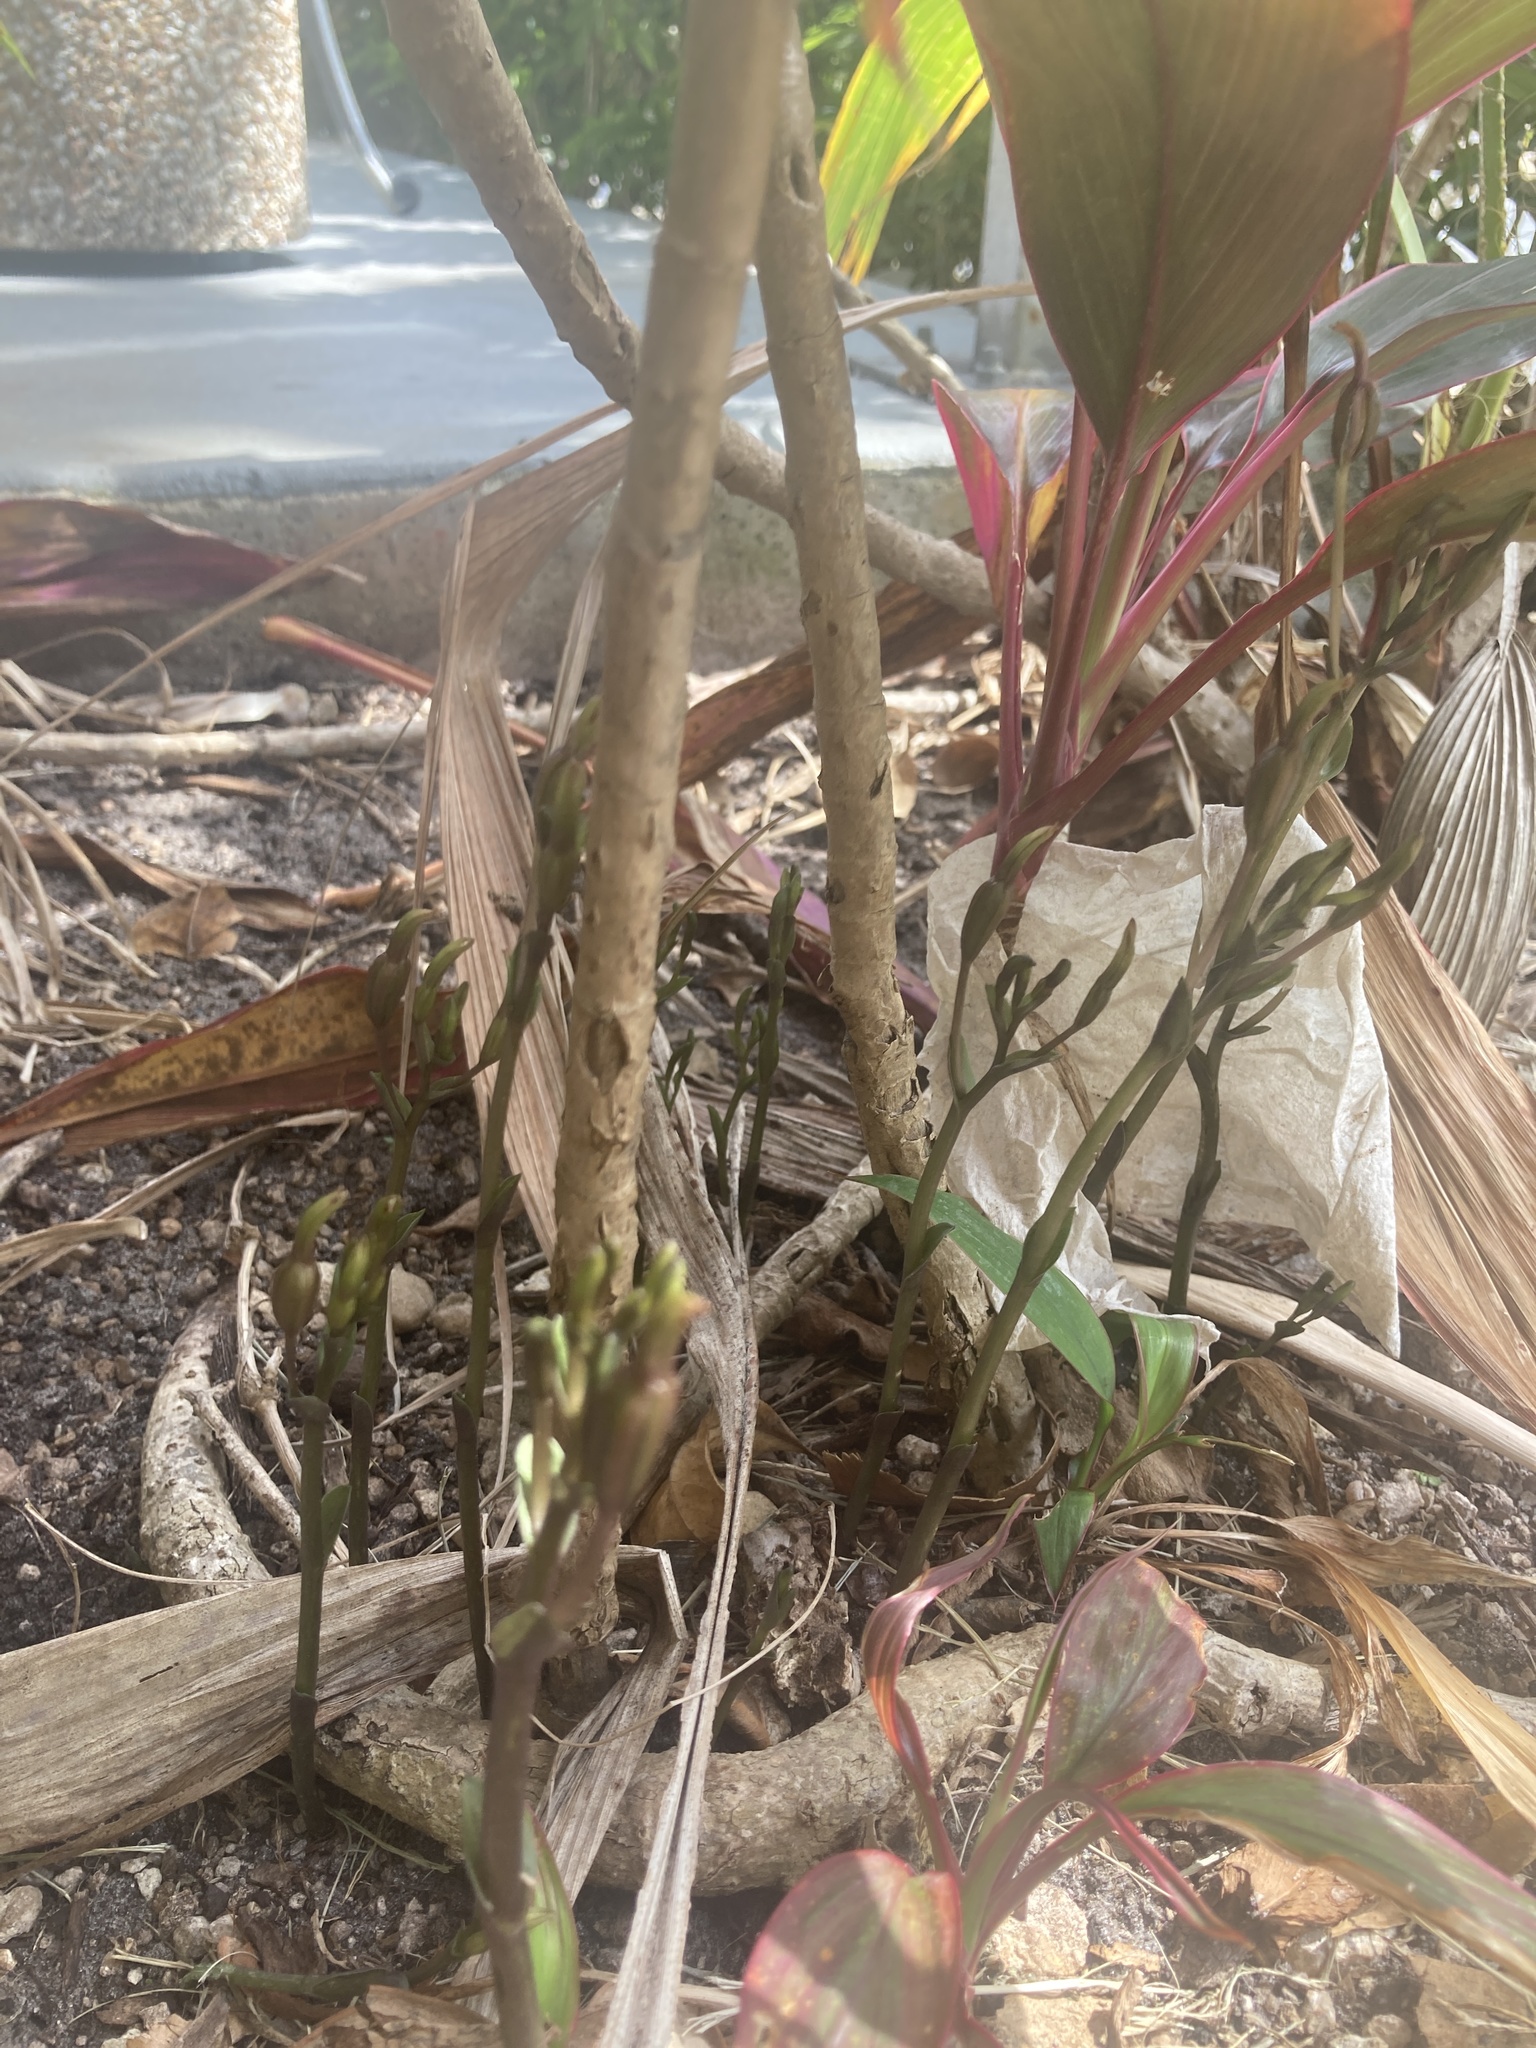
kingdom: Plantae
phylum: Tracheophyta
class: Liliopsida
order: Asparagales
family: Orchidaceae
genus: Triphora
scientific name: Triphora gentianoides
